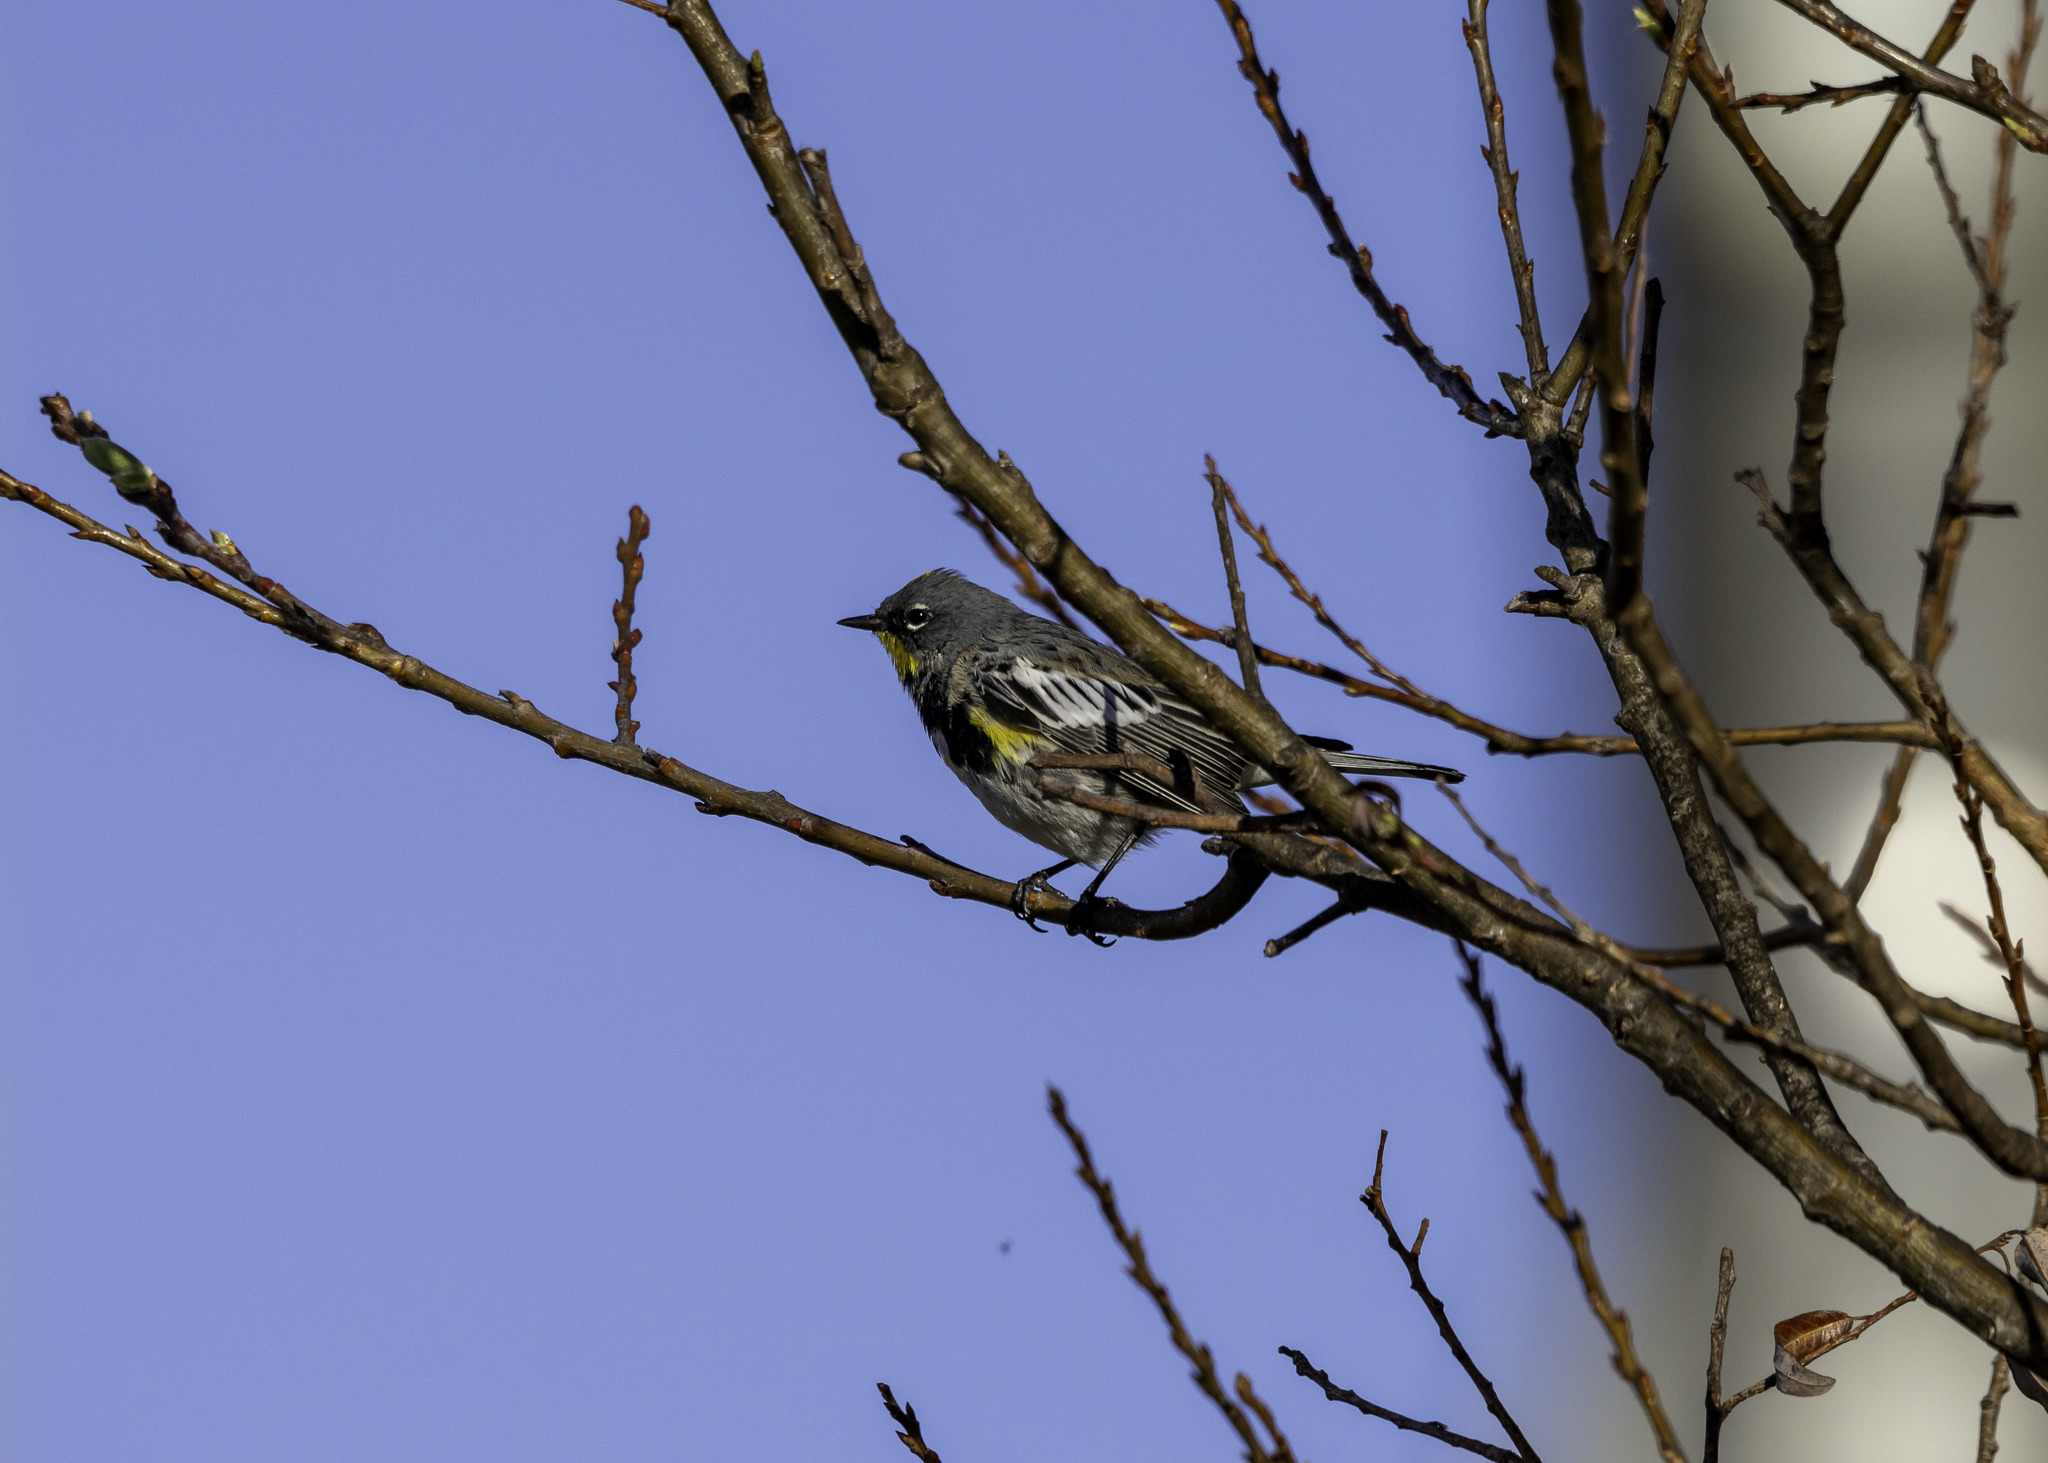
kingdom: Animalia
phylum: Chordata
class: Aves
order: Passeriformes
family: Parulidae
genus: Setophaga
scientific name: Setophaga coronata
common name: Myrtle warbler
